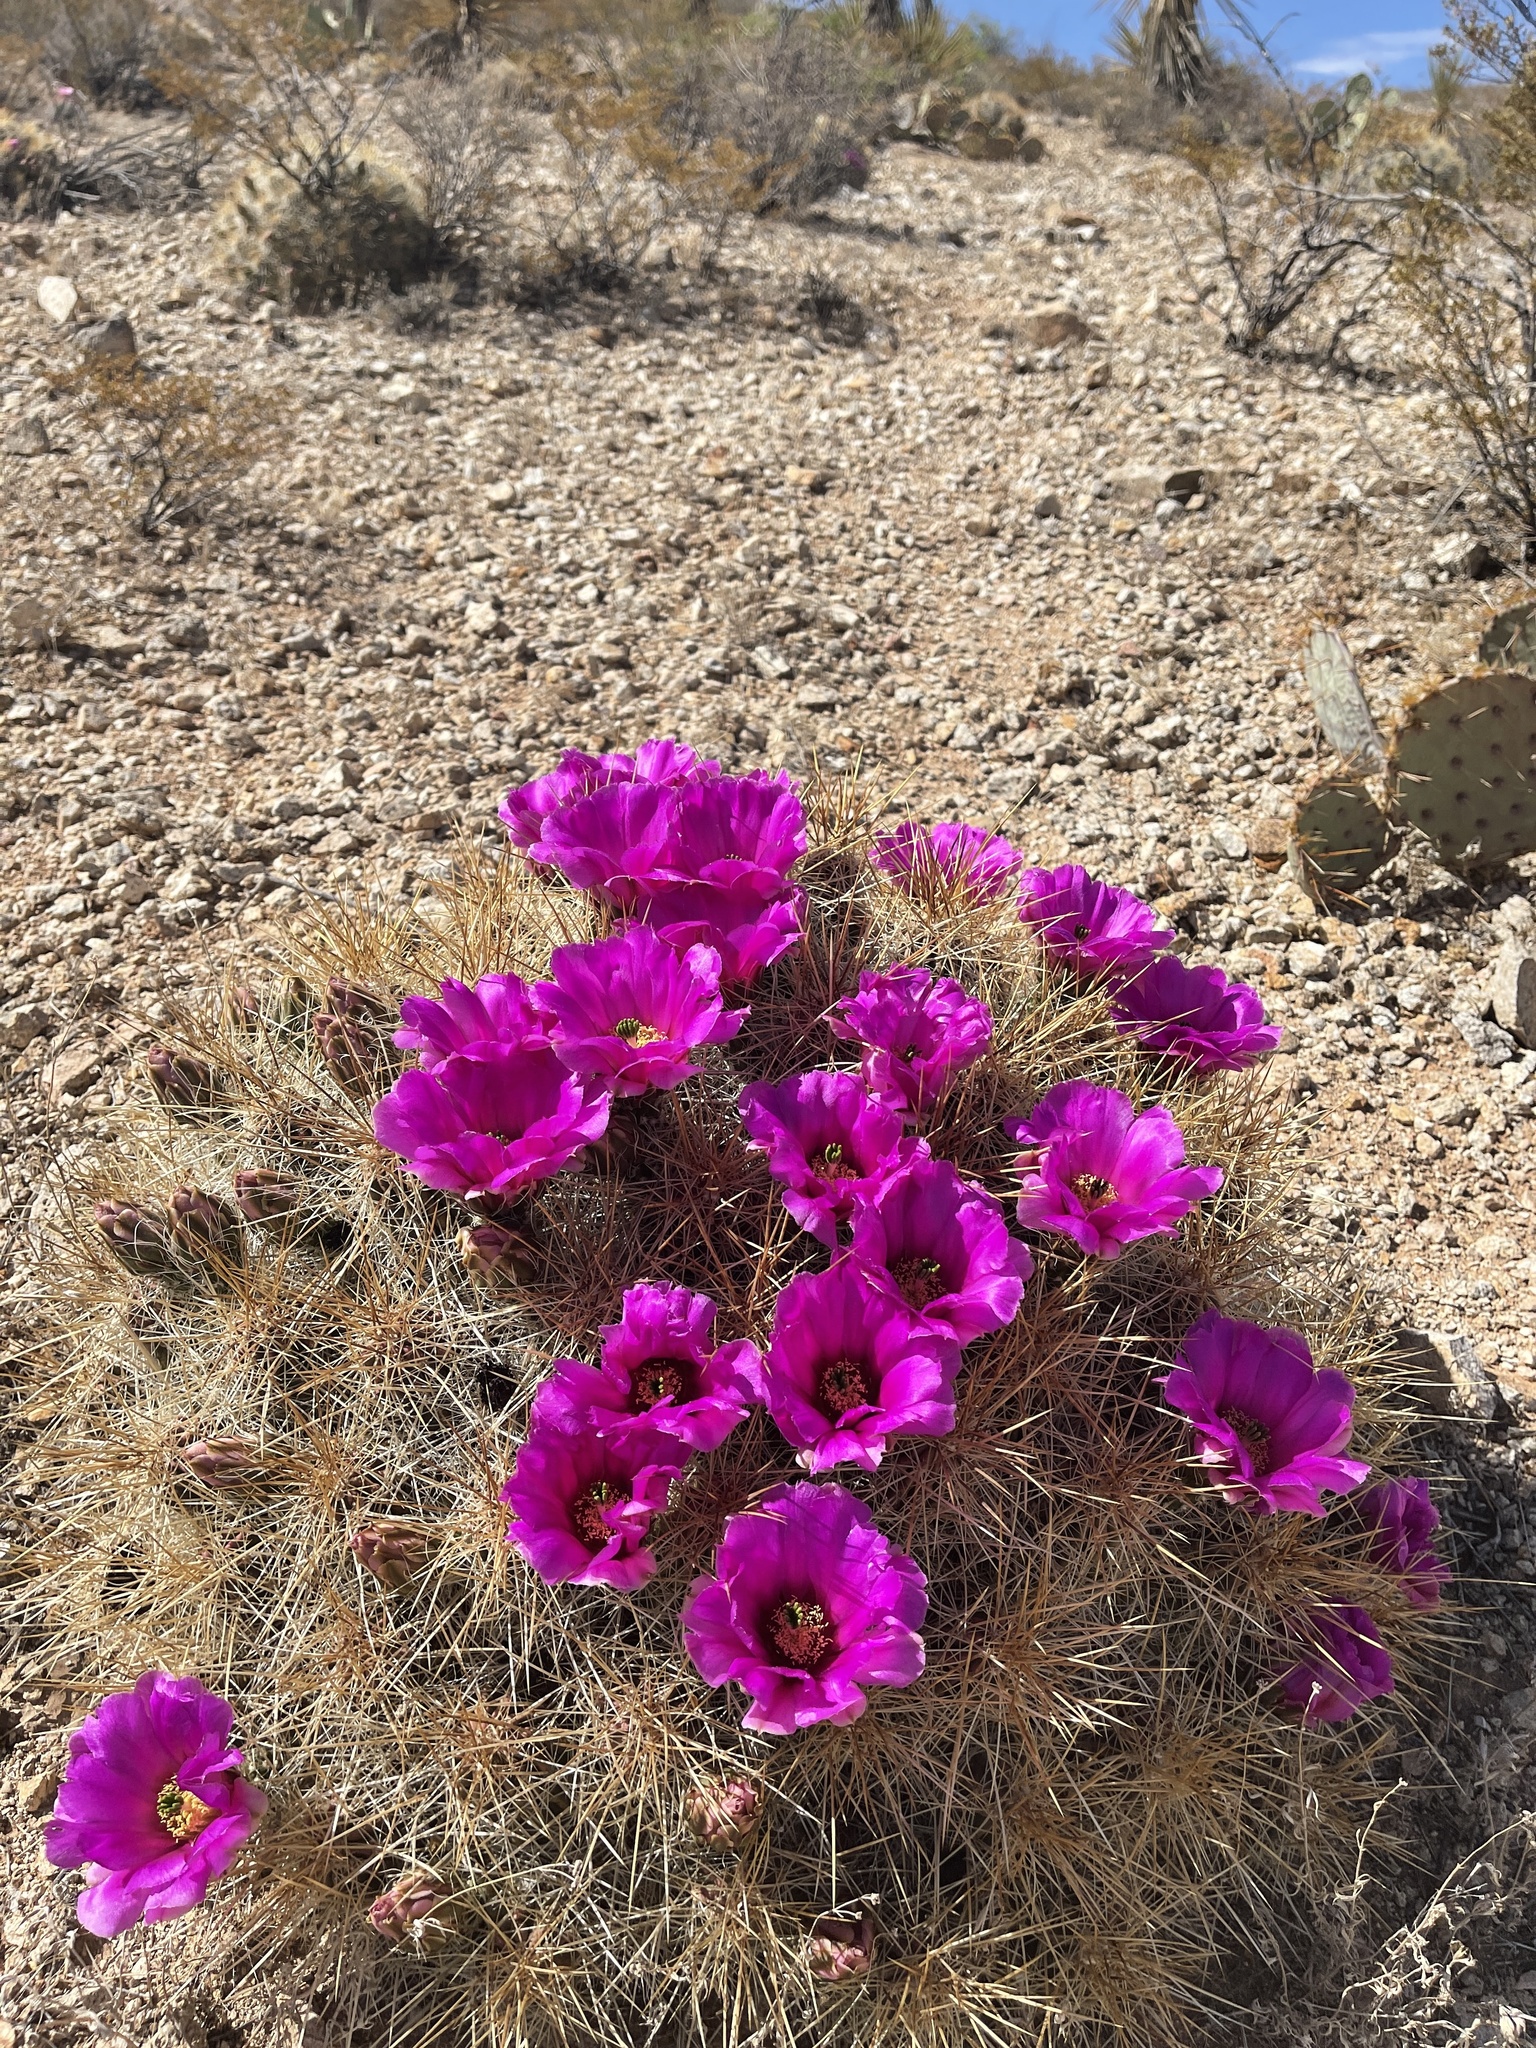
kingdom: Plantae
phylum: Tracheophyta
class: Magnoliopsida
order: Caryophyllales
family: Cactaceae
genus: Echinocereus
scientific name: Echinocereus stramineus
